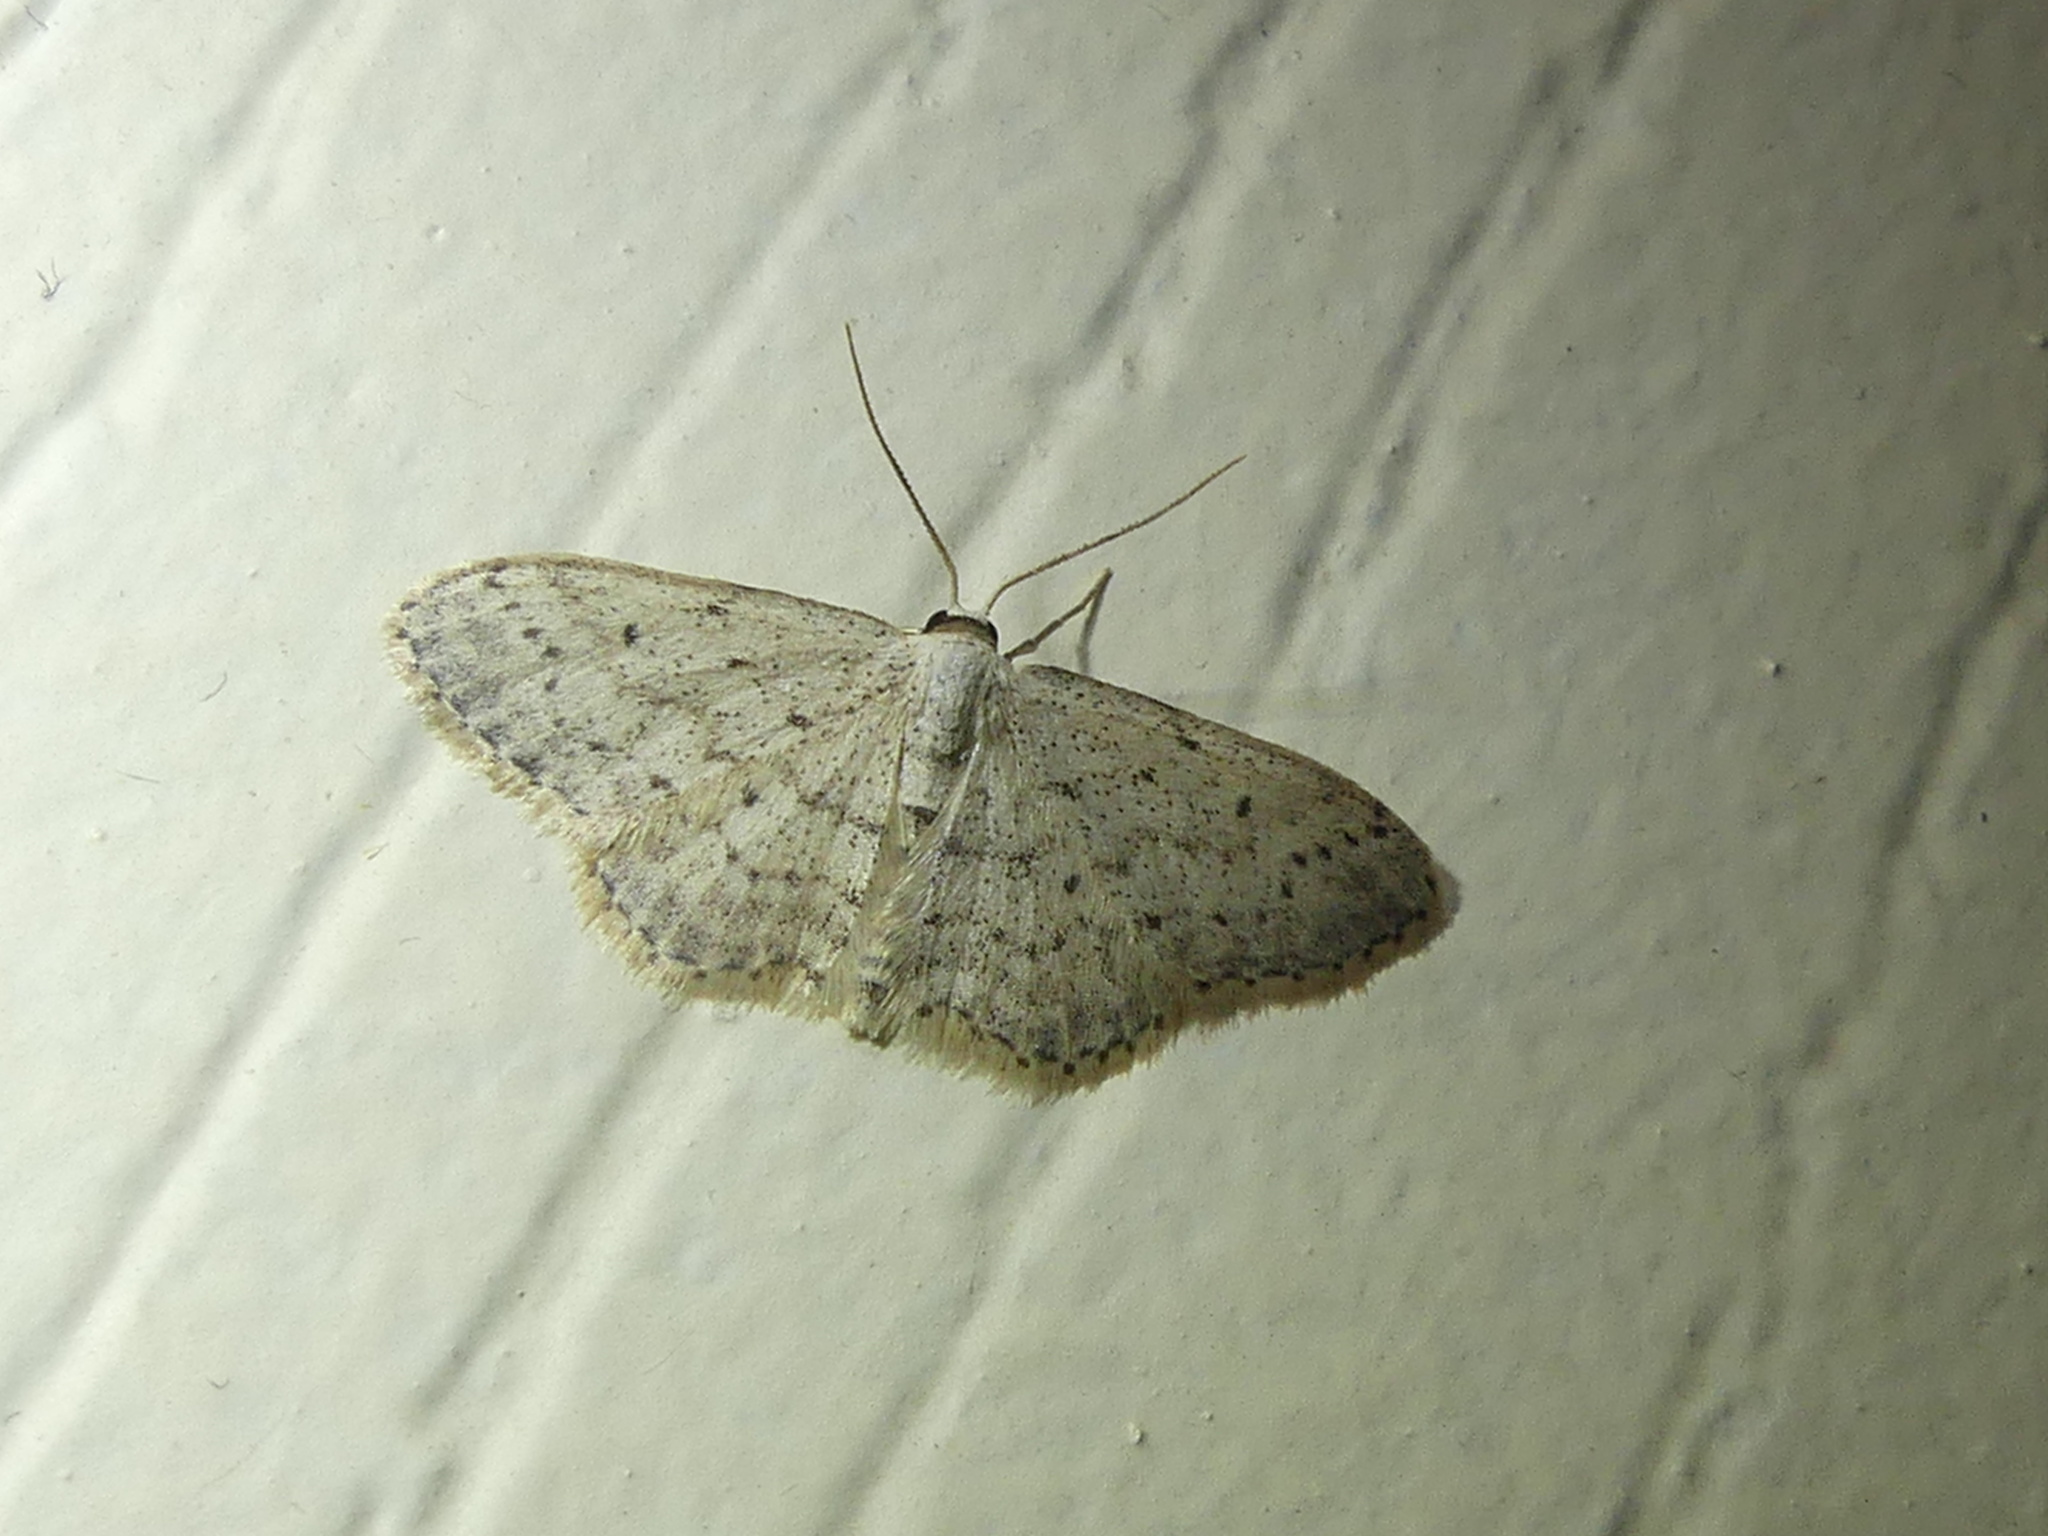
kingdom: Animalia
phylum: Arthropoda
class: Insecta
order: Lepidoptera
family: Geometridae
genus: Idaea
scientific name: Idaea seriata
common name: Small dusty wave
